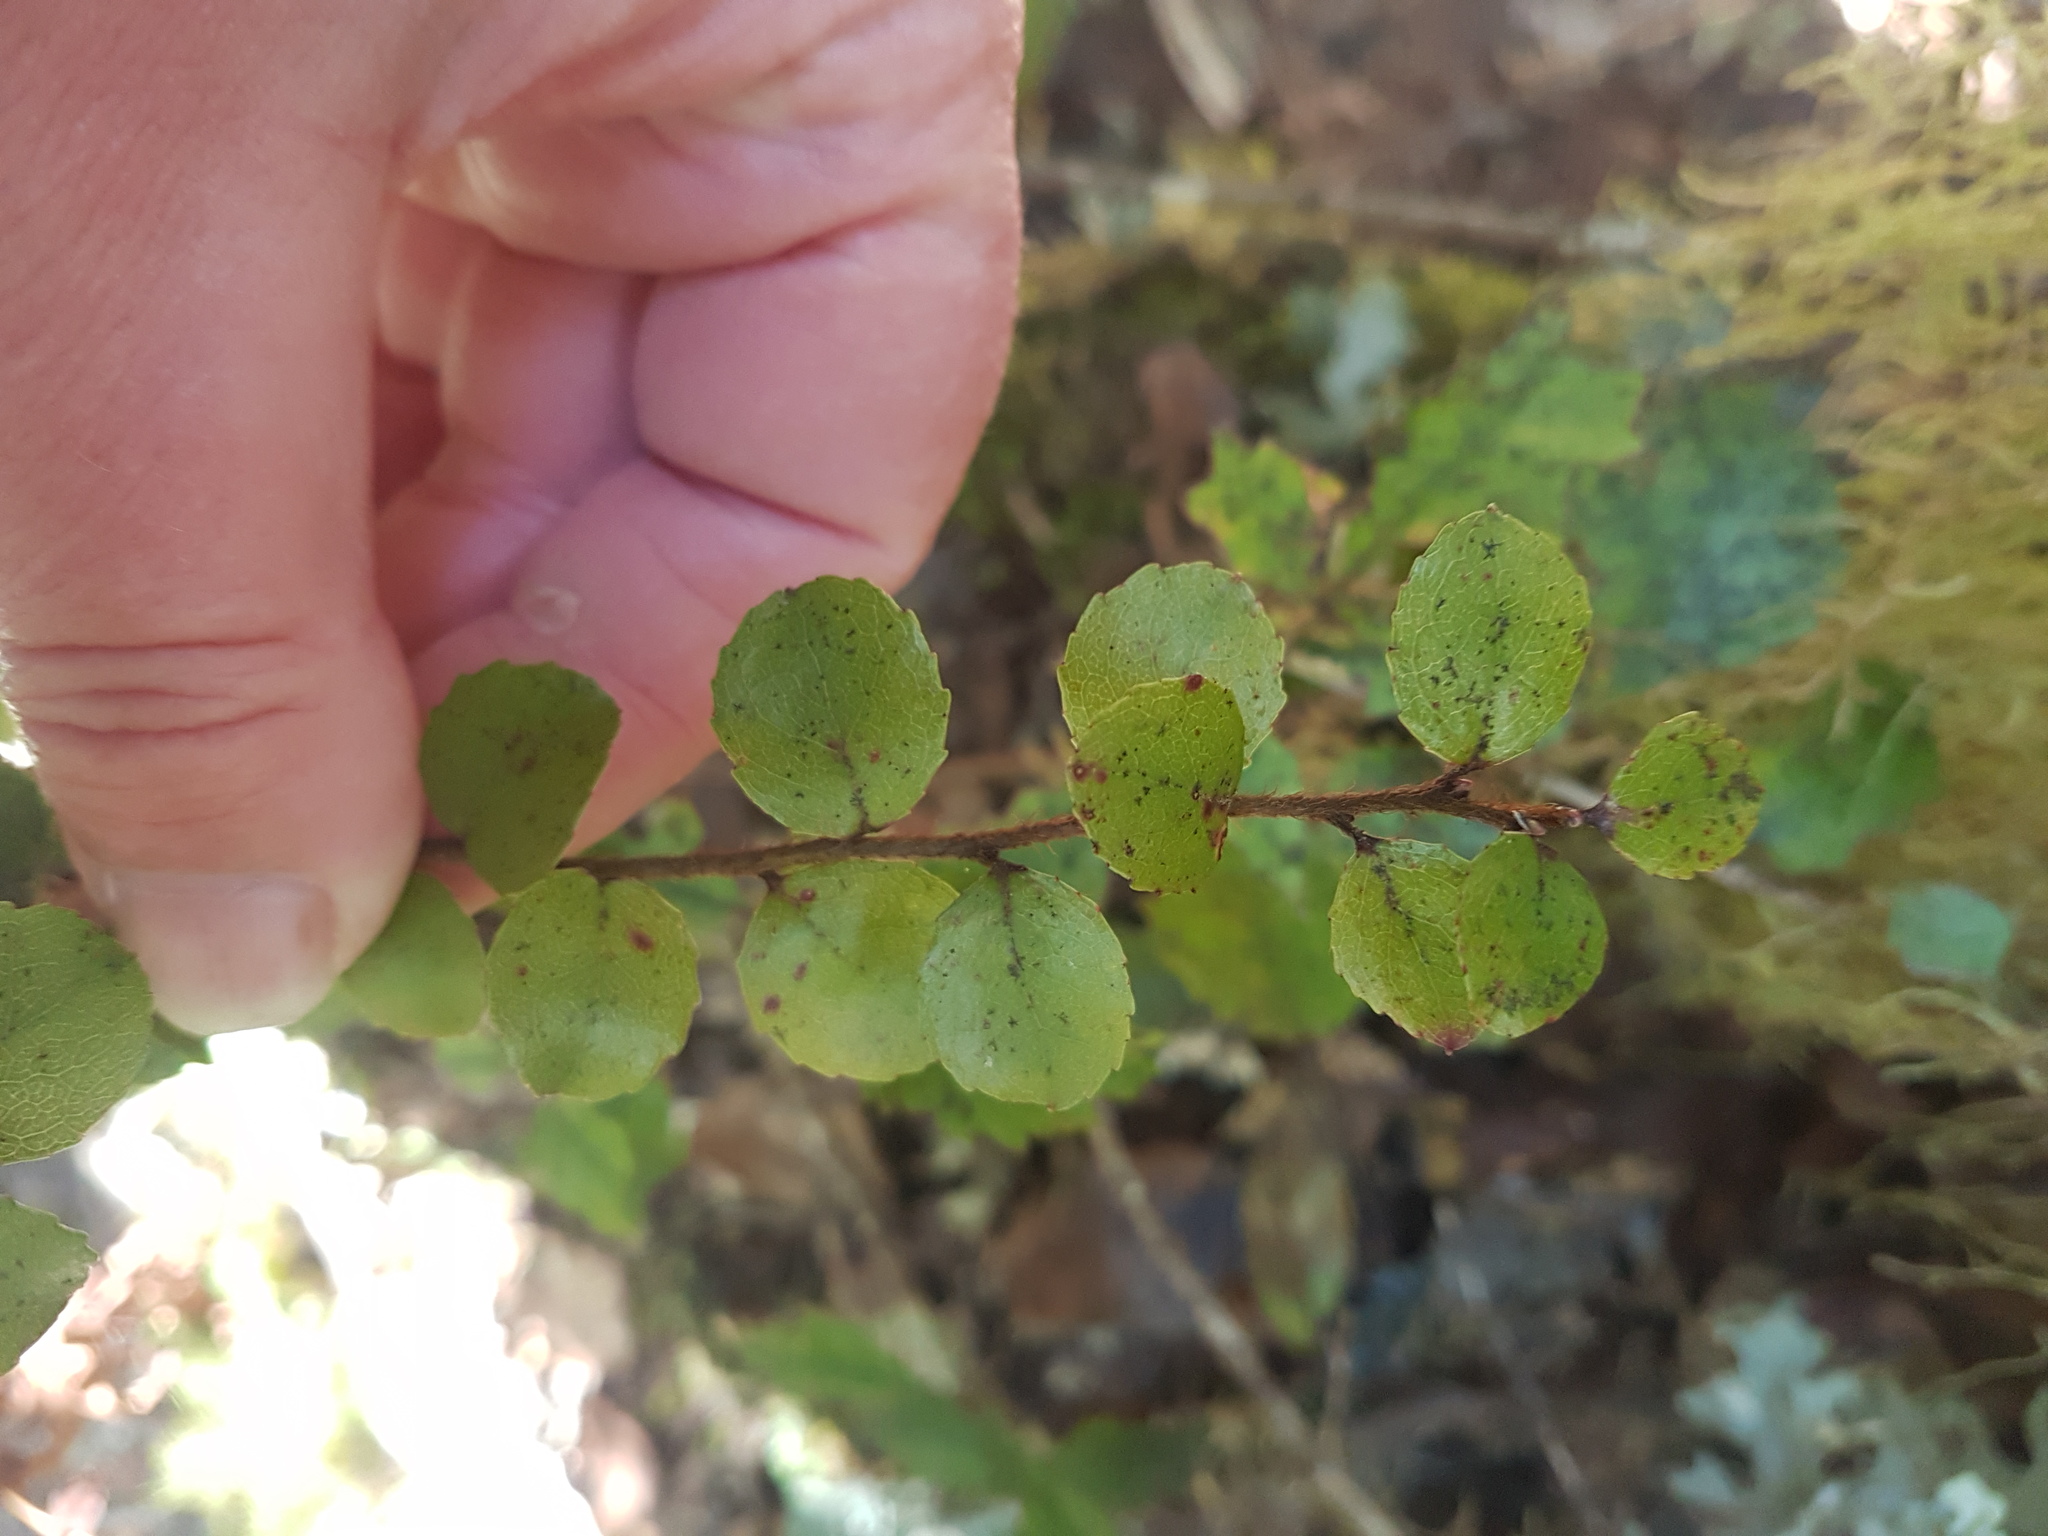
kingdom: Plantae
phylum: Tracheophyta
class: Magnoliopsida
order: Ericales
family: Ericaceae
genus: Gaultheria
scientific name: Gaultheria antipoda
